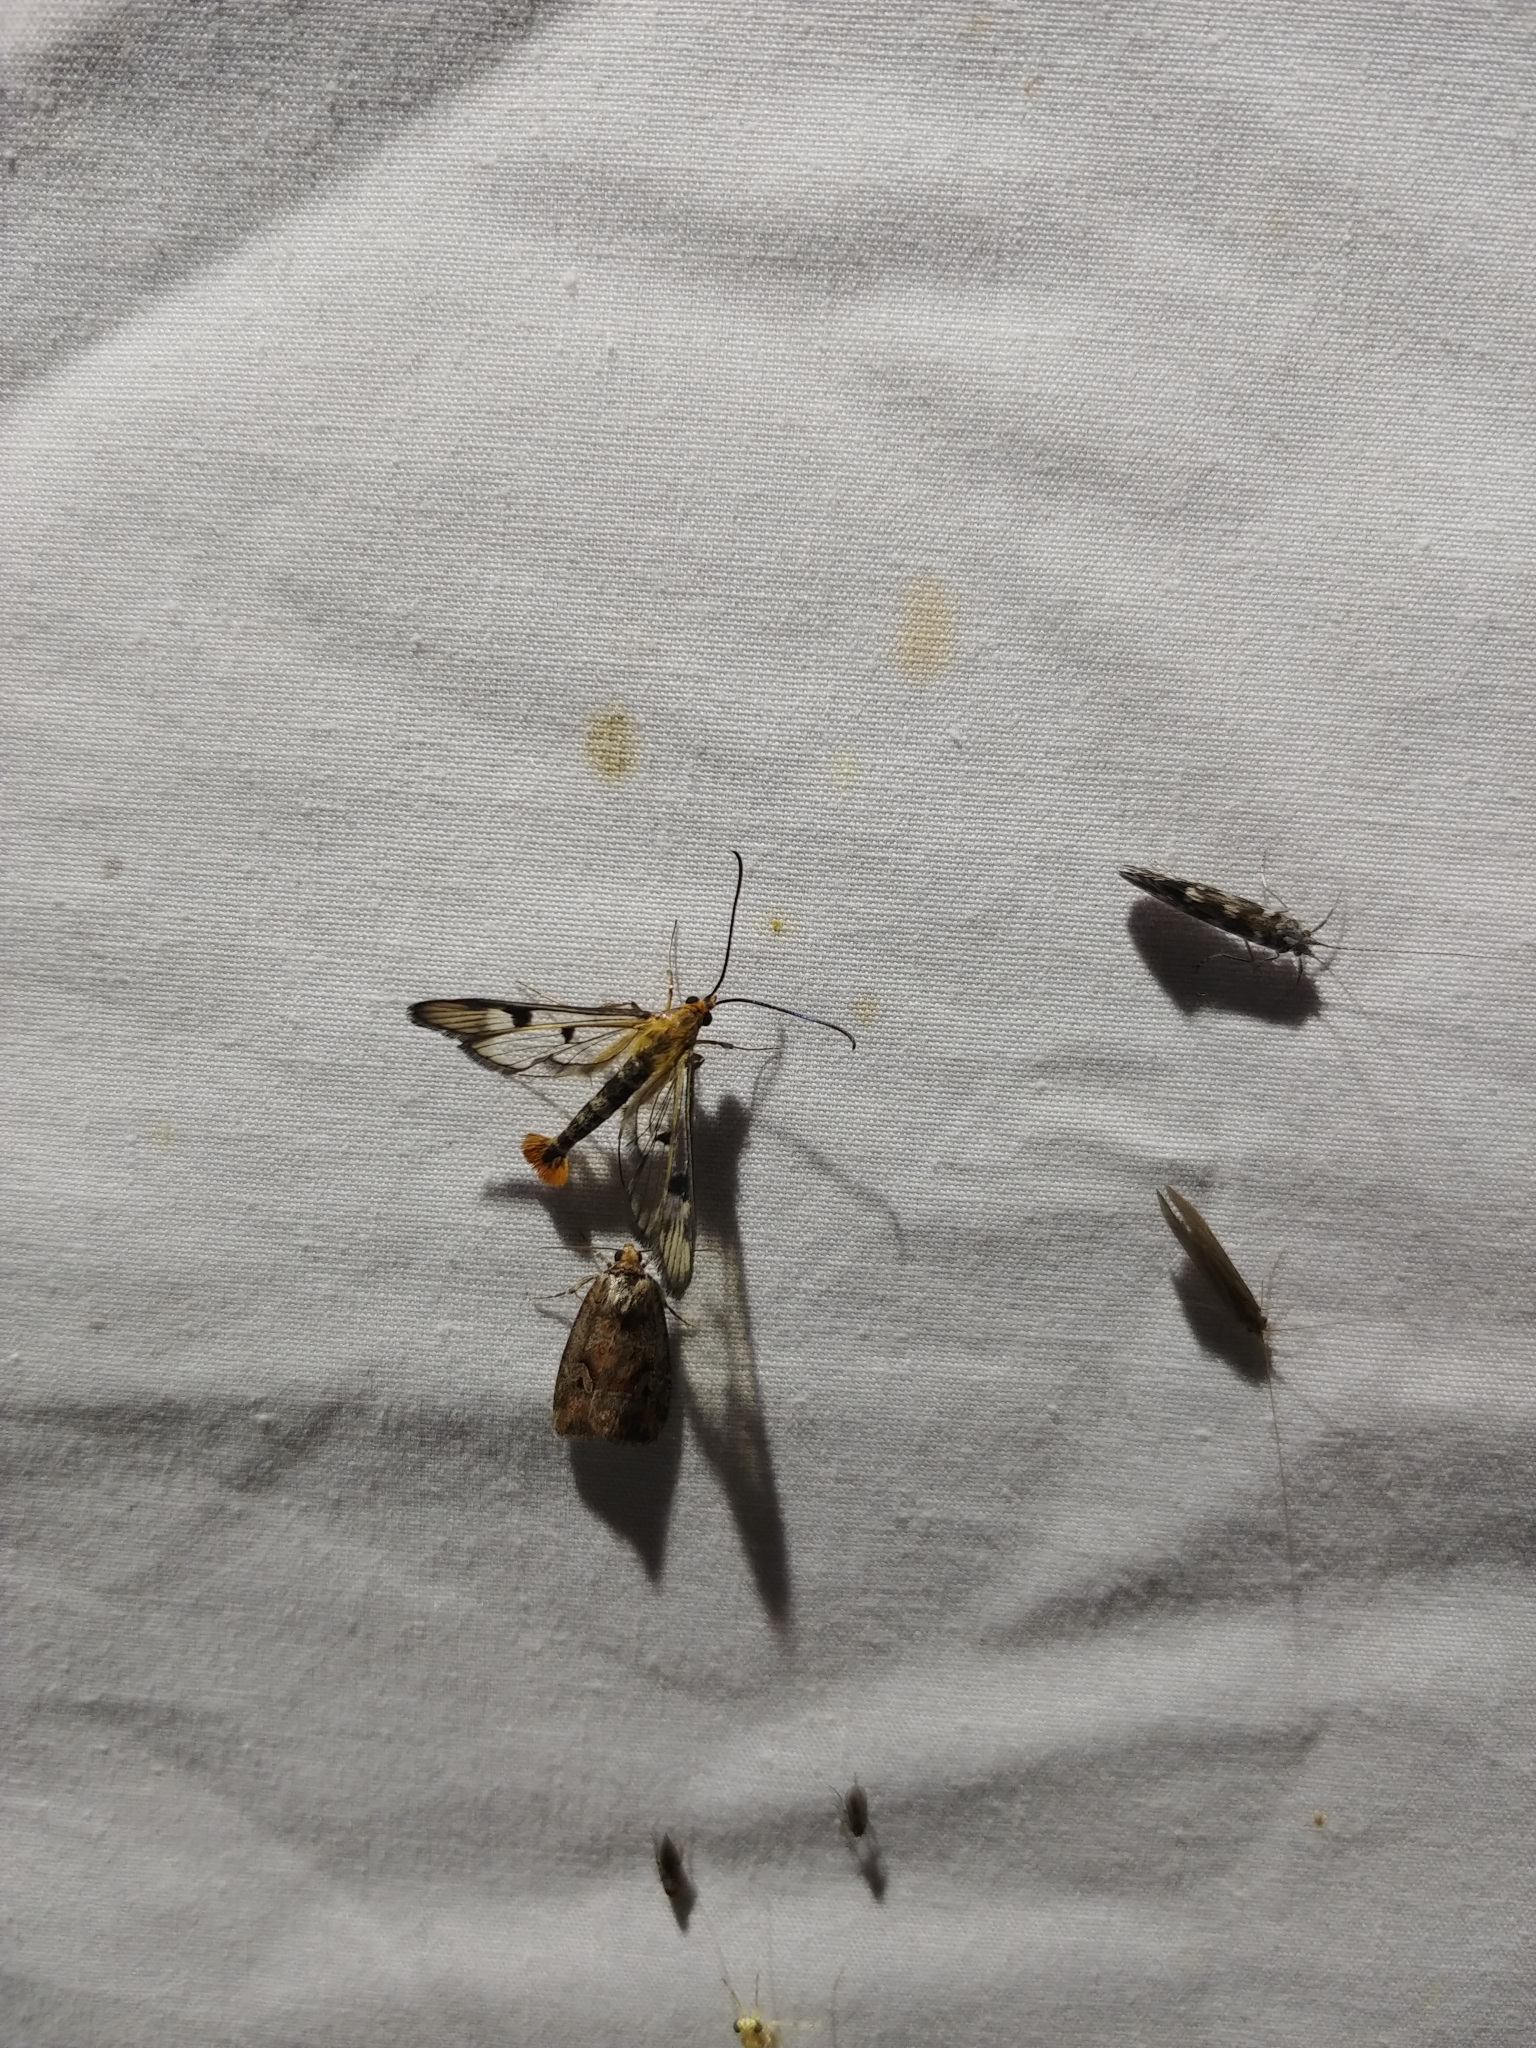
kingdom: Animalia
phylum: Arthropoda
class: Insecta
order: Lepidoptera
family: Sesiidae
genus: Synanthedon
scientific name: Synanthedon acerni
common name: Maple callus borer moth
